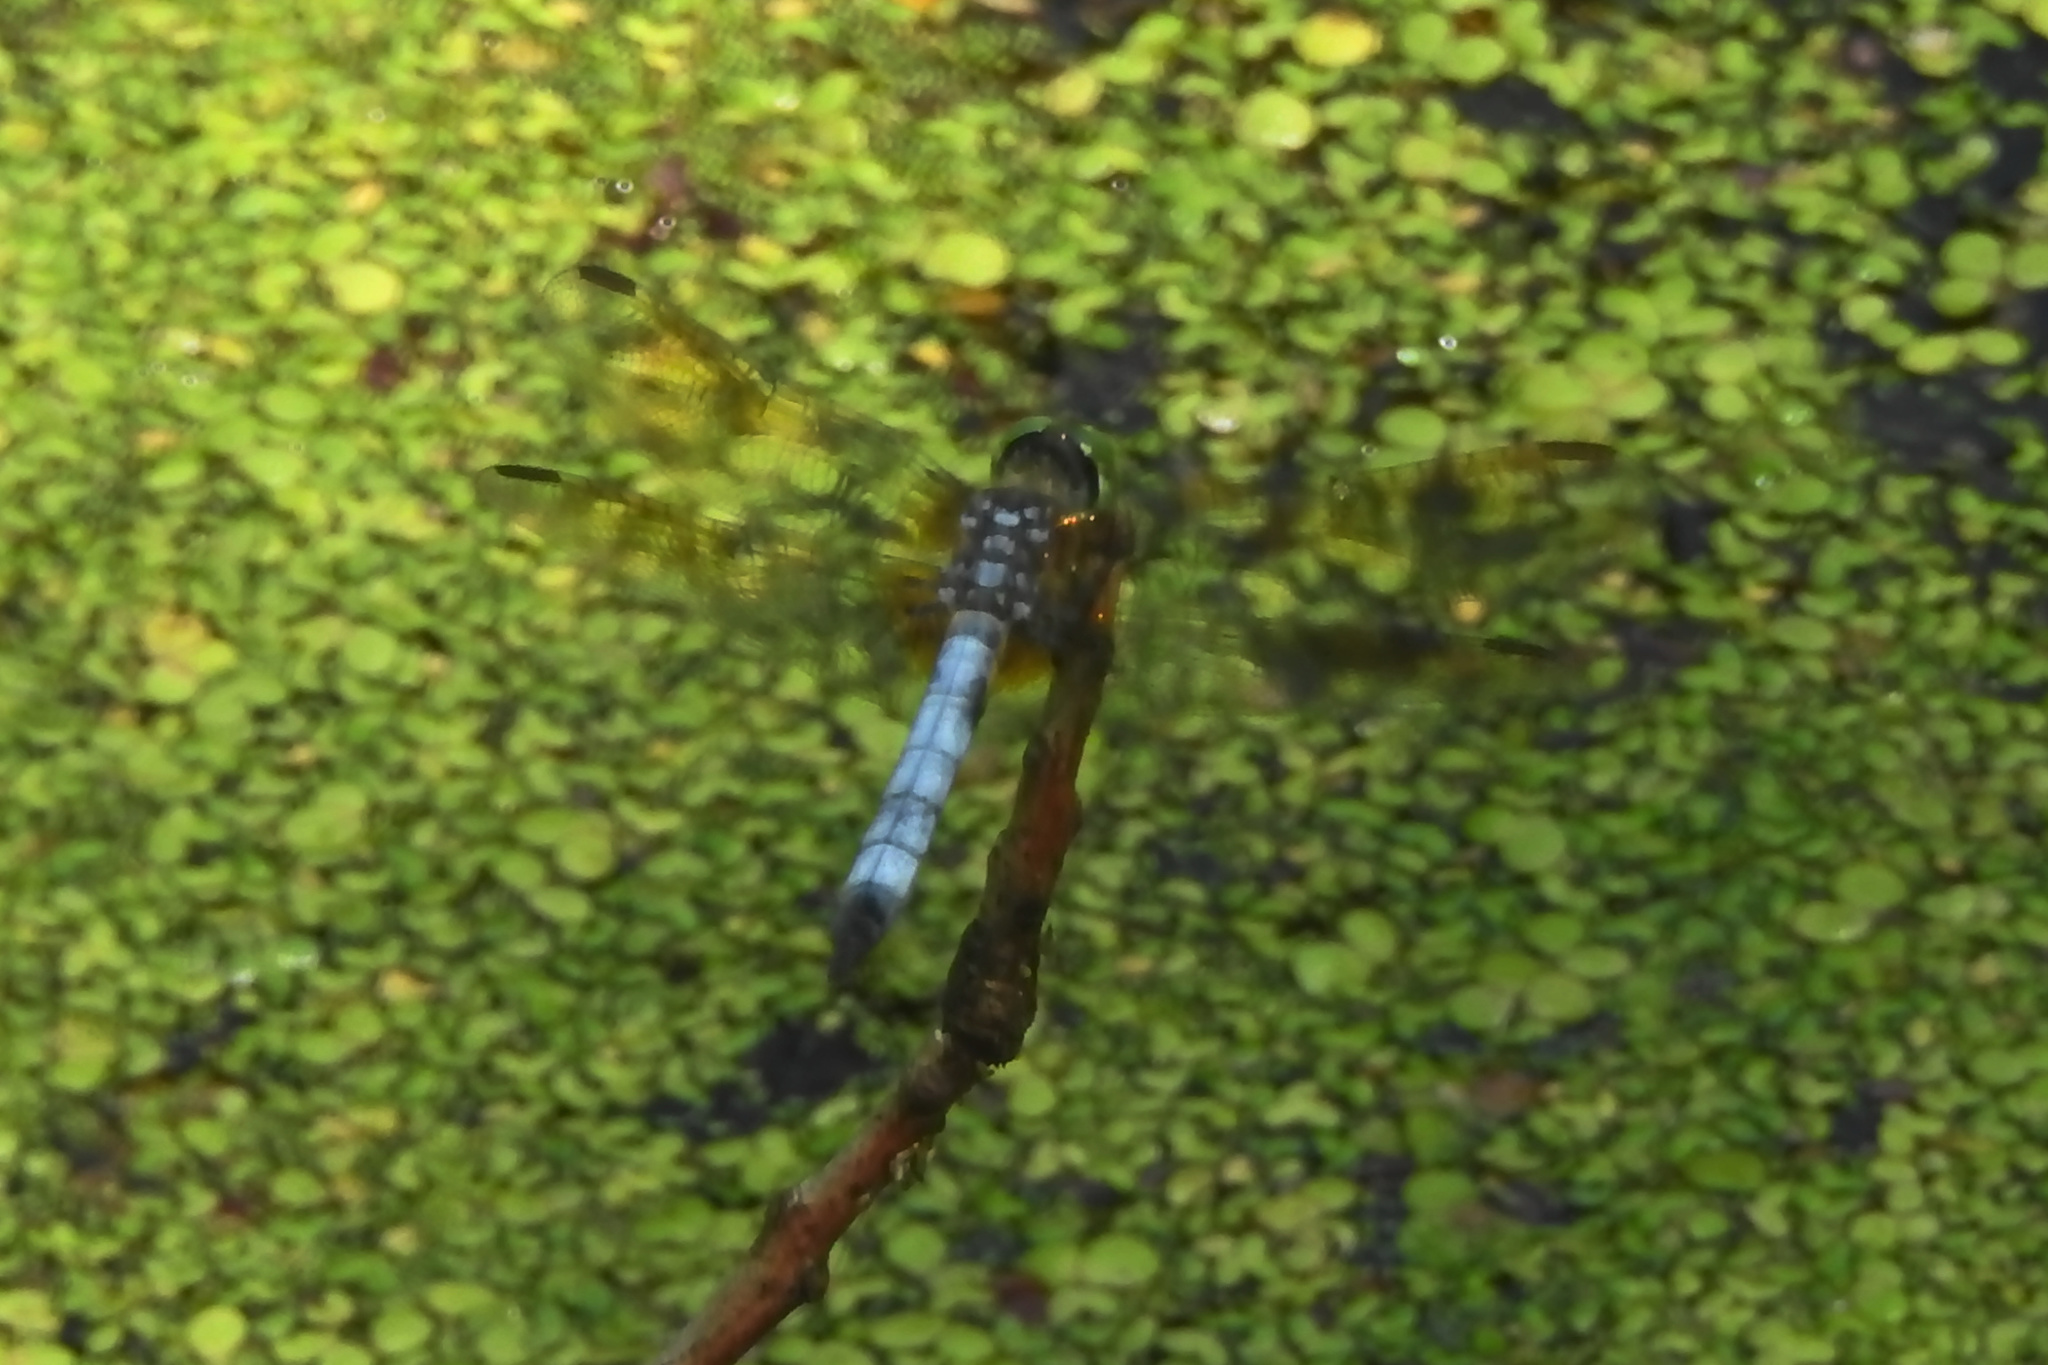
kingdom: Animalia
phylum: Arthropoda
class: Insecta
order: Odonata
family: Libellulidae
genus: Pachydiplax
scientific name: Pachydiplax longipennis
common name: Blue dasher
